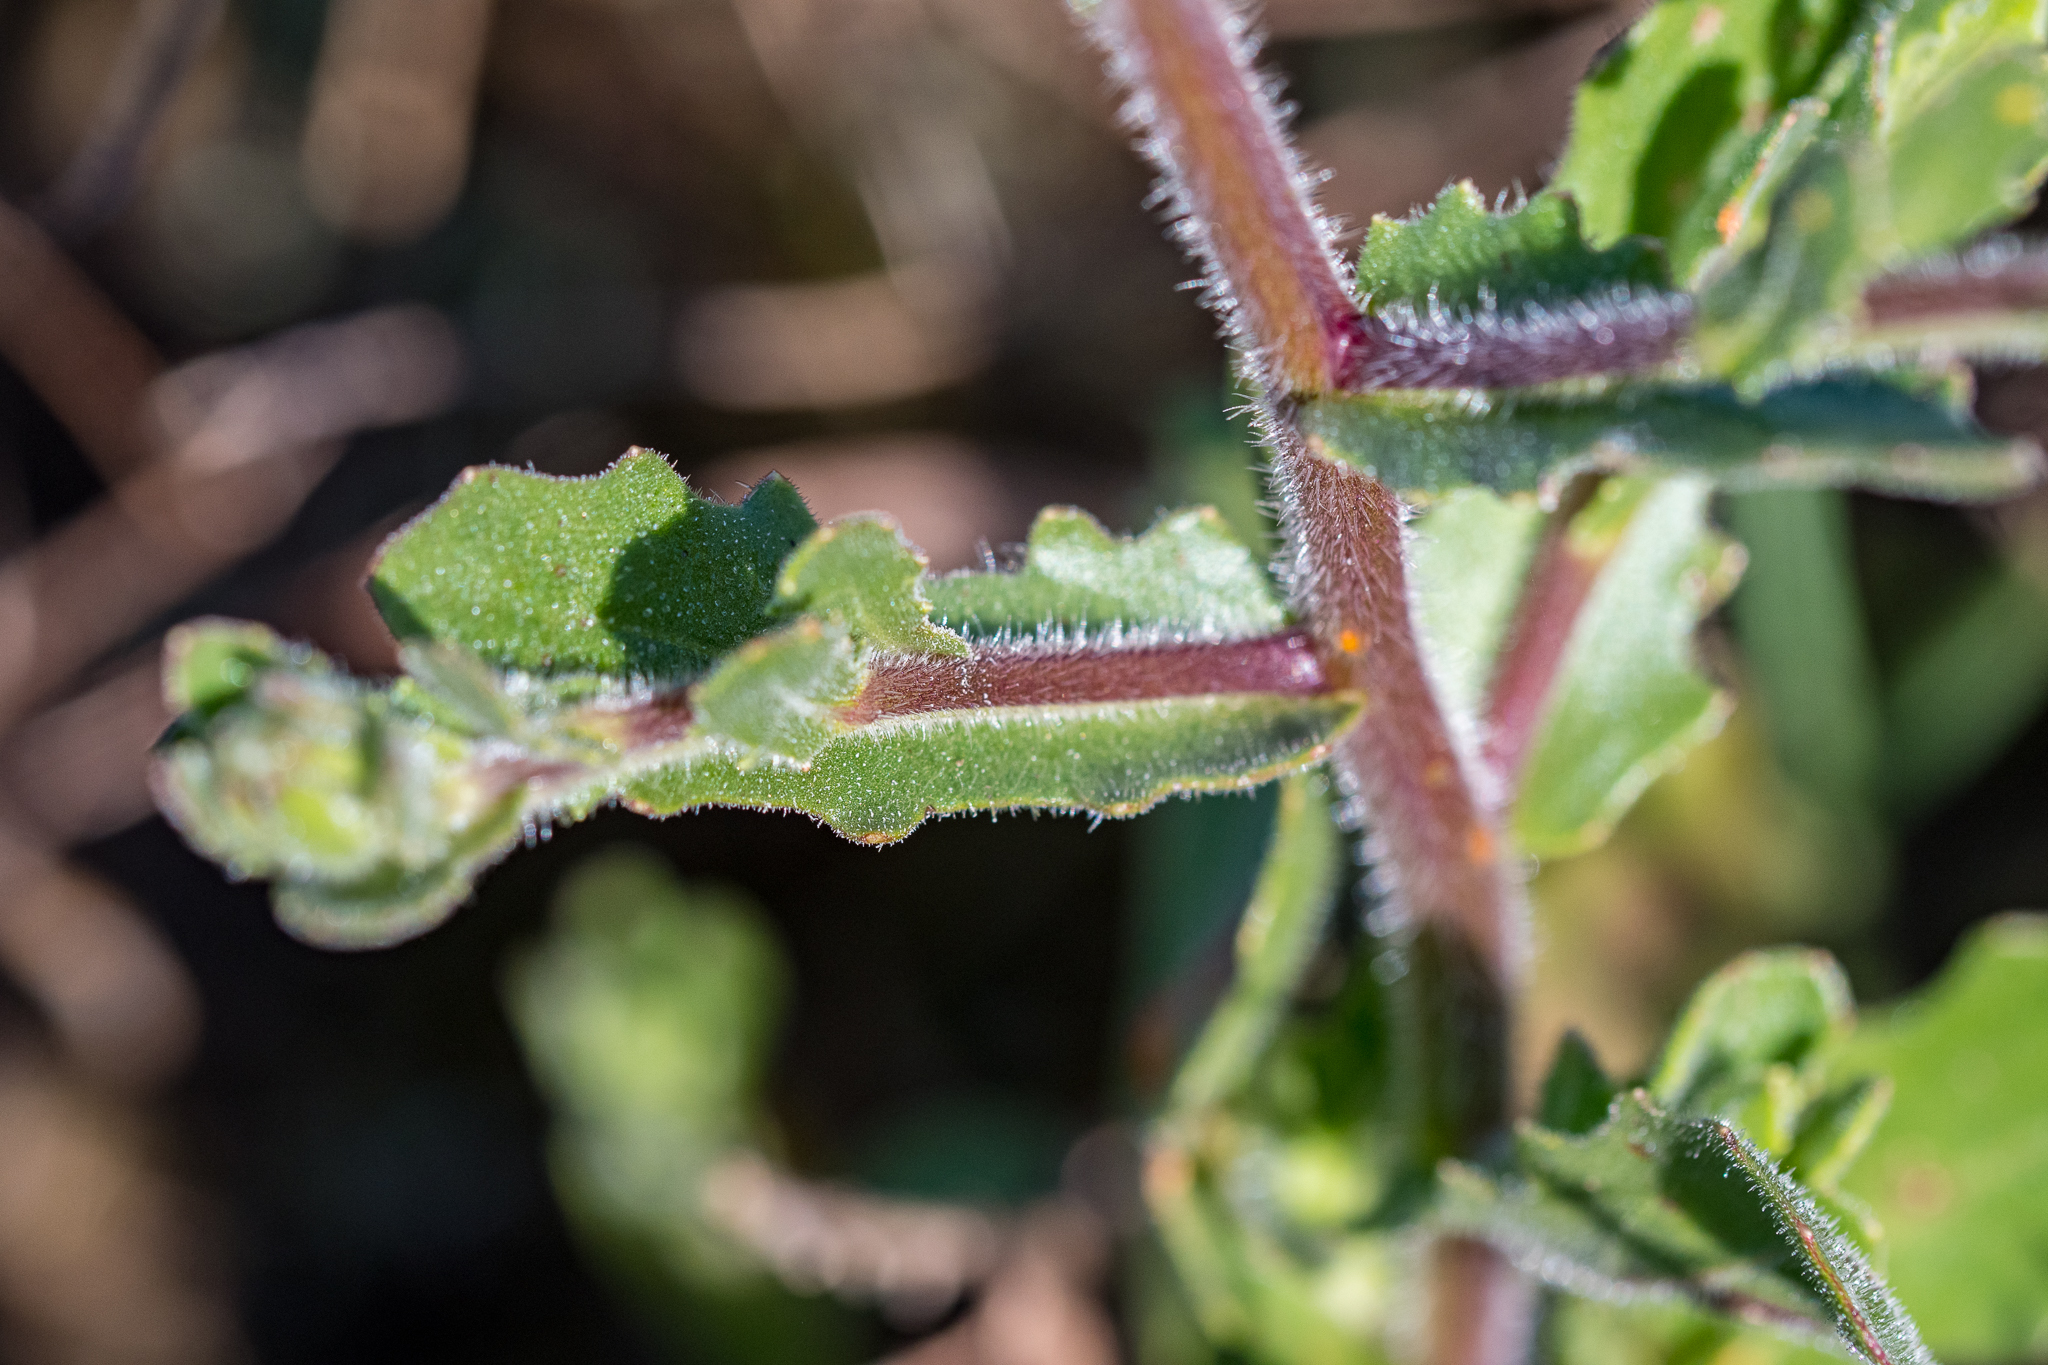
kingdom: Plantae
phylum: Tracheophyta
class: Magnoliopsida
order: Asterales
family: Asteraceae
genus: Osteospermum
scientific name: Osteospermum monstrosum
